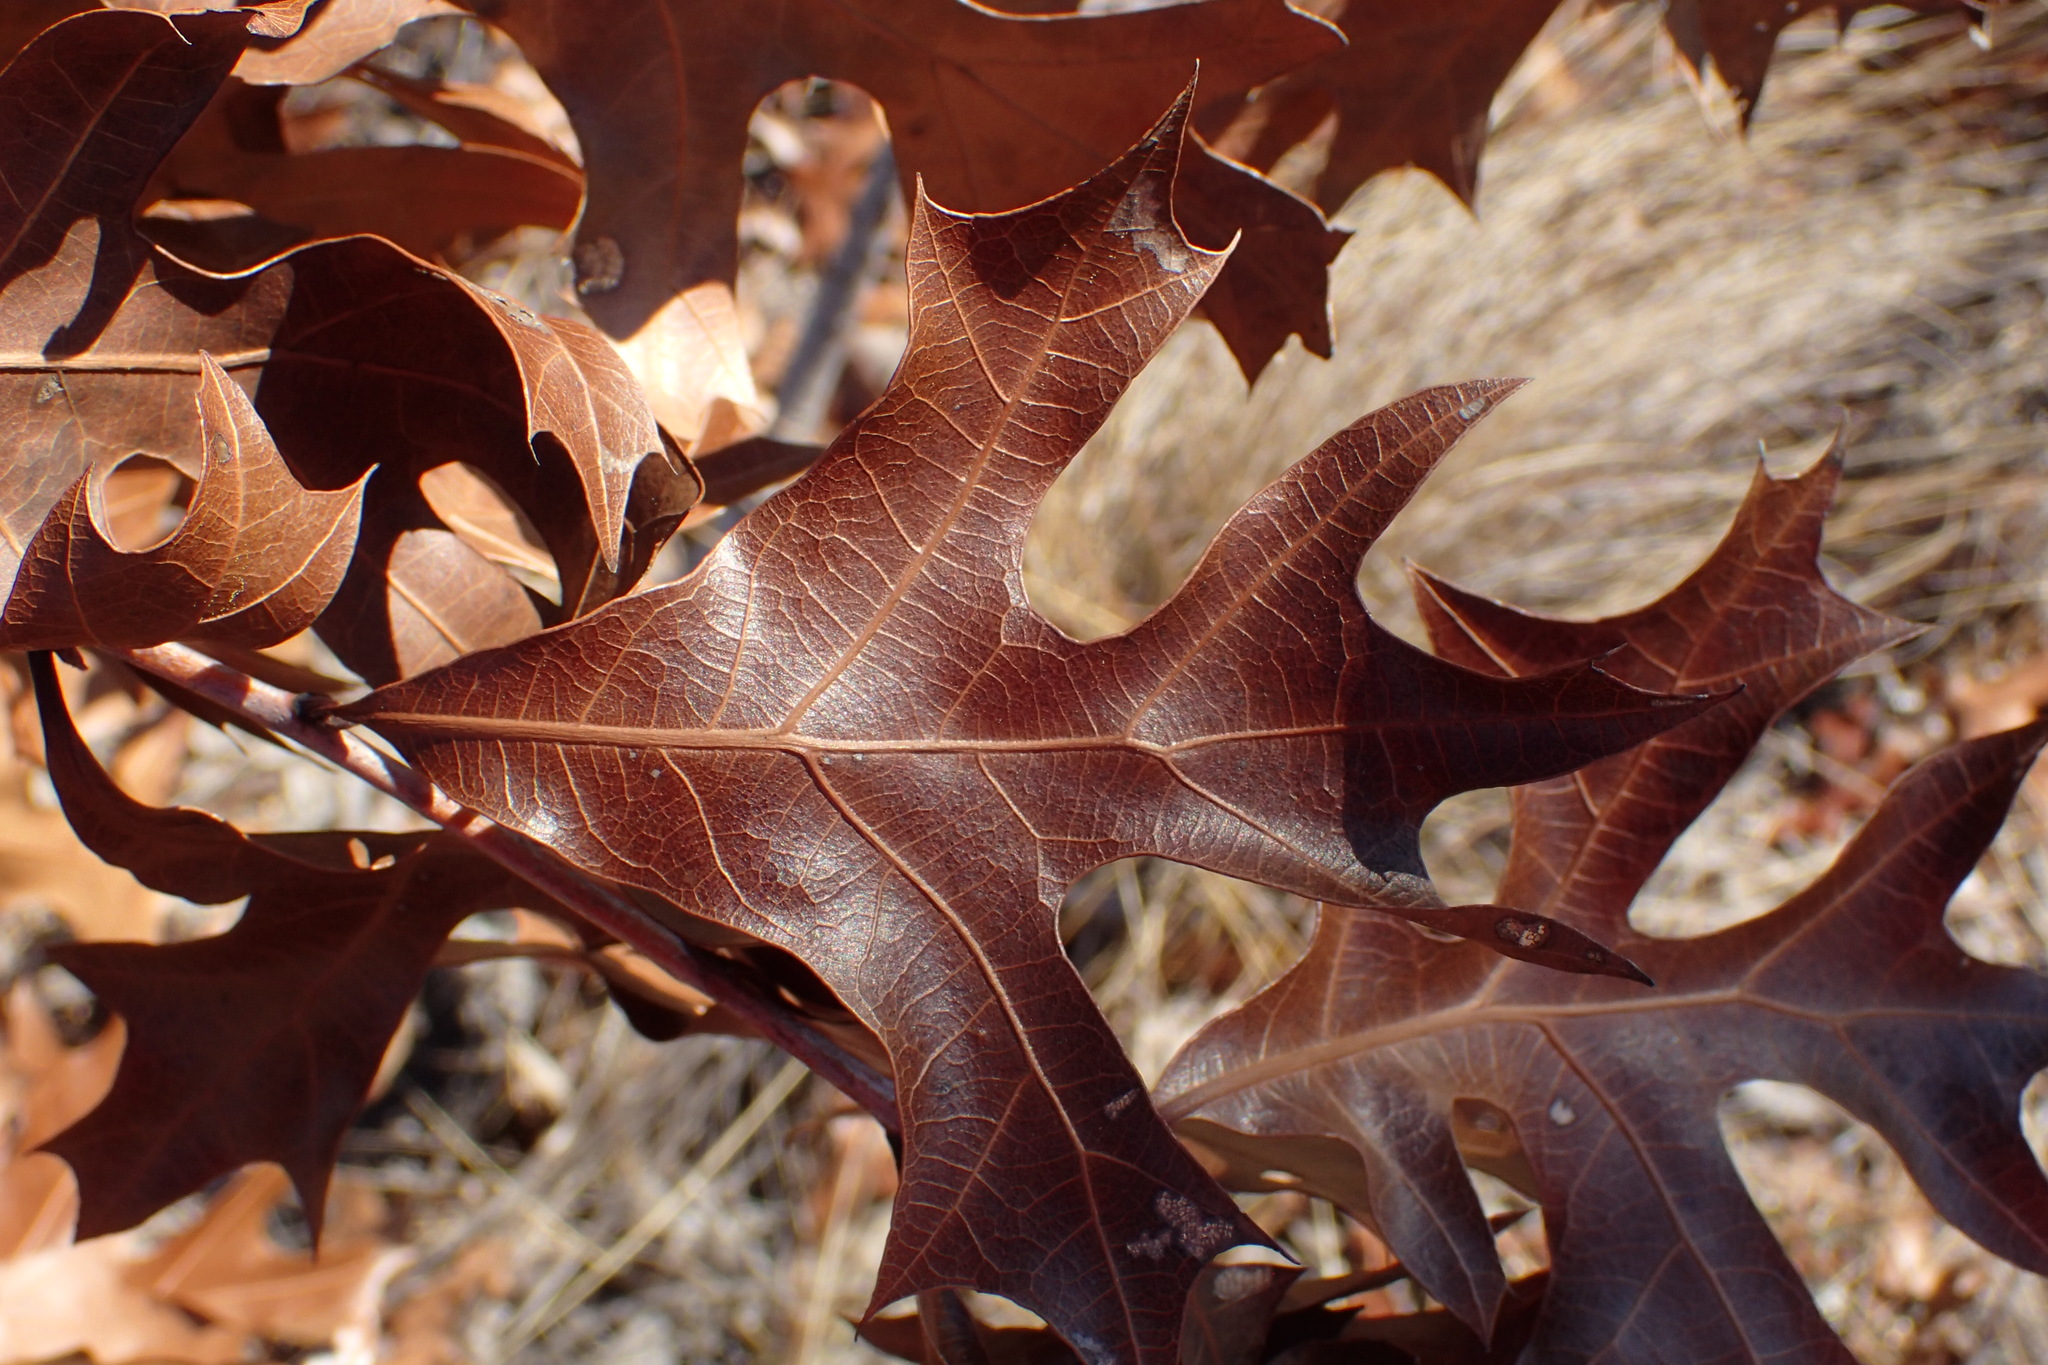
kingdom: Plantae
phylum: Tracheophyta
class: Magnoliopsida
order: Fagales
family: Fagaceae
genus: Quercus
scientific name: Quercus laevis
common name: Turkey oak
